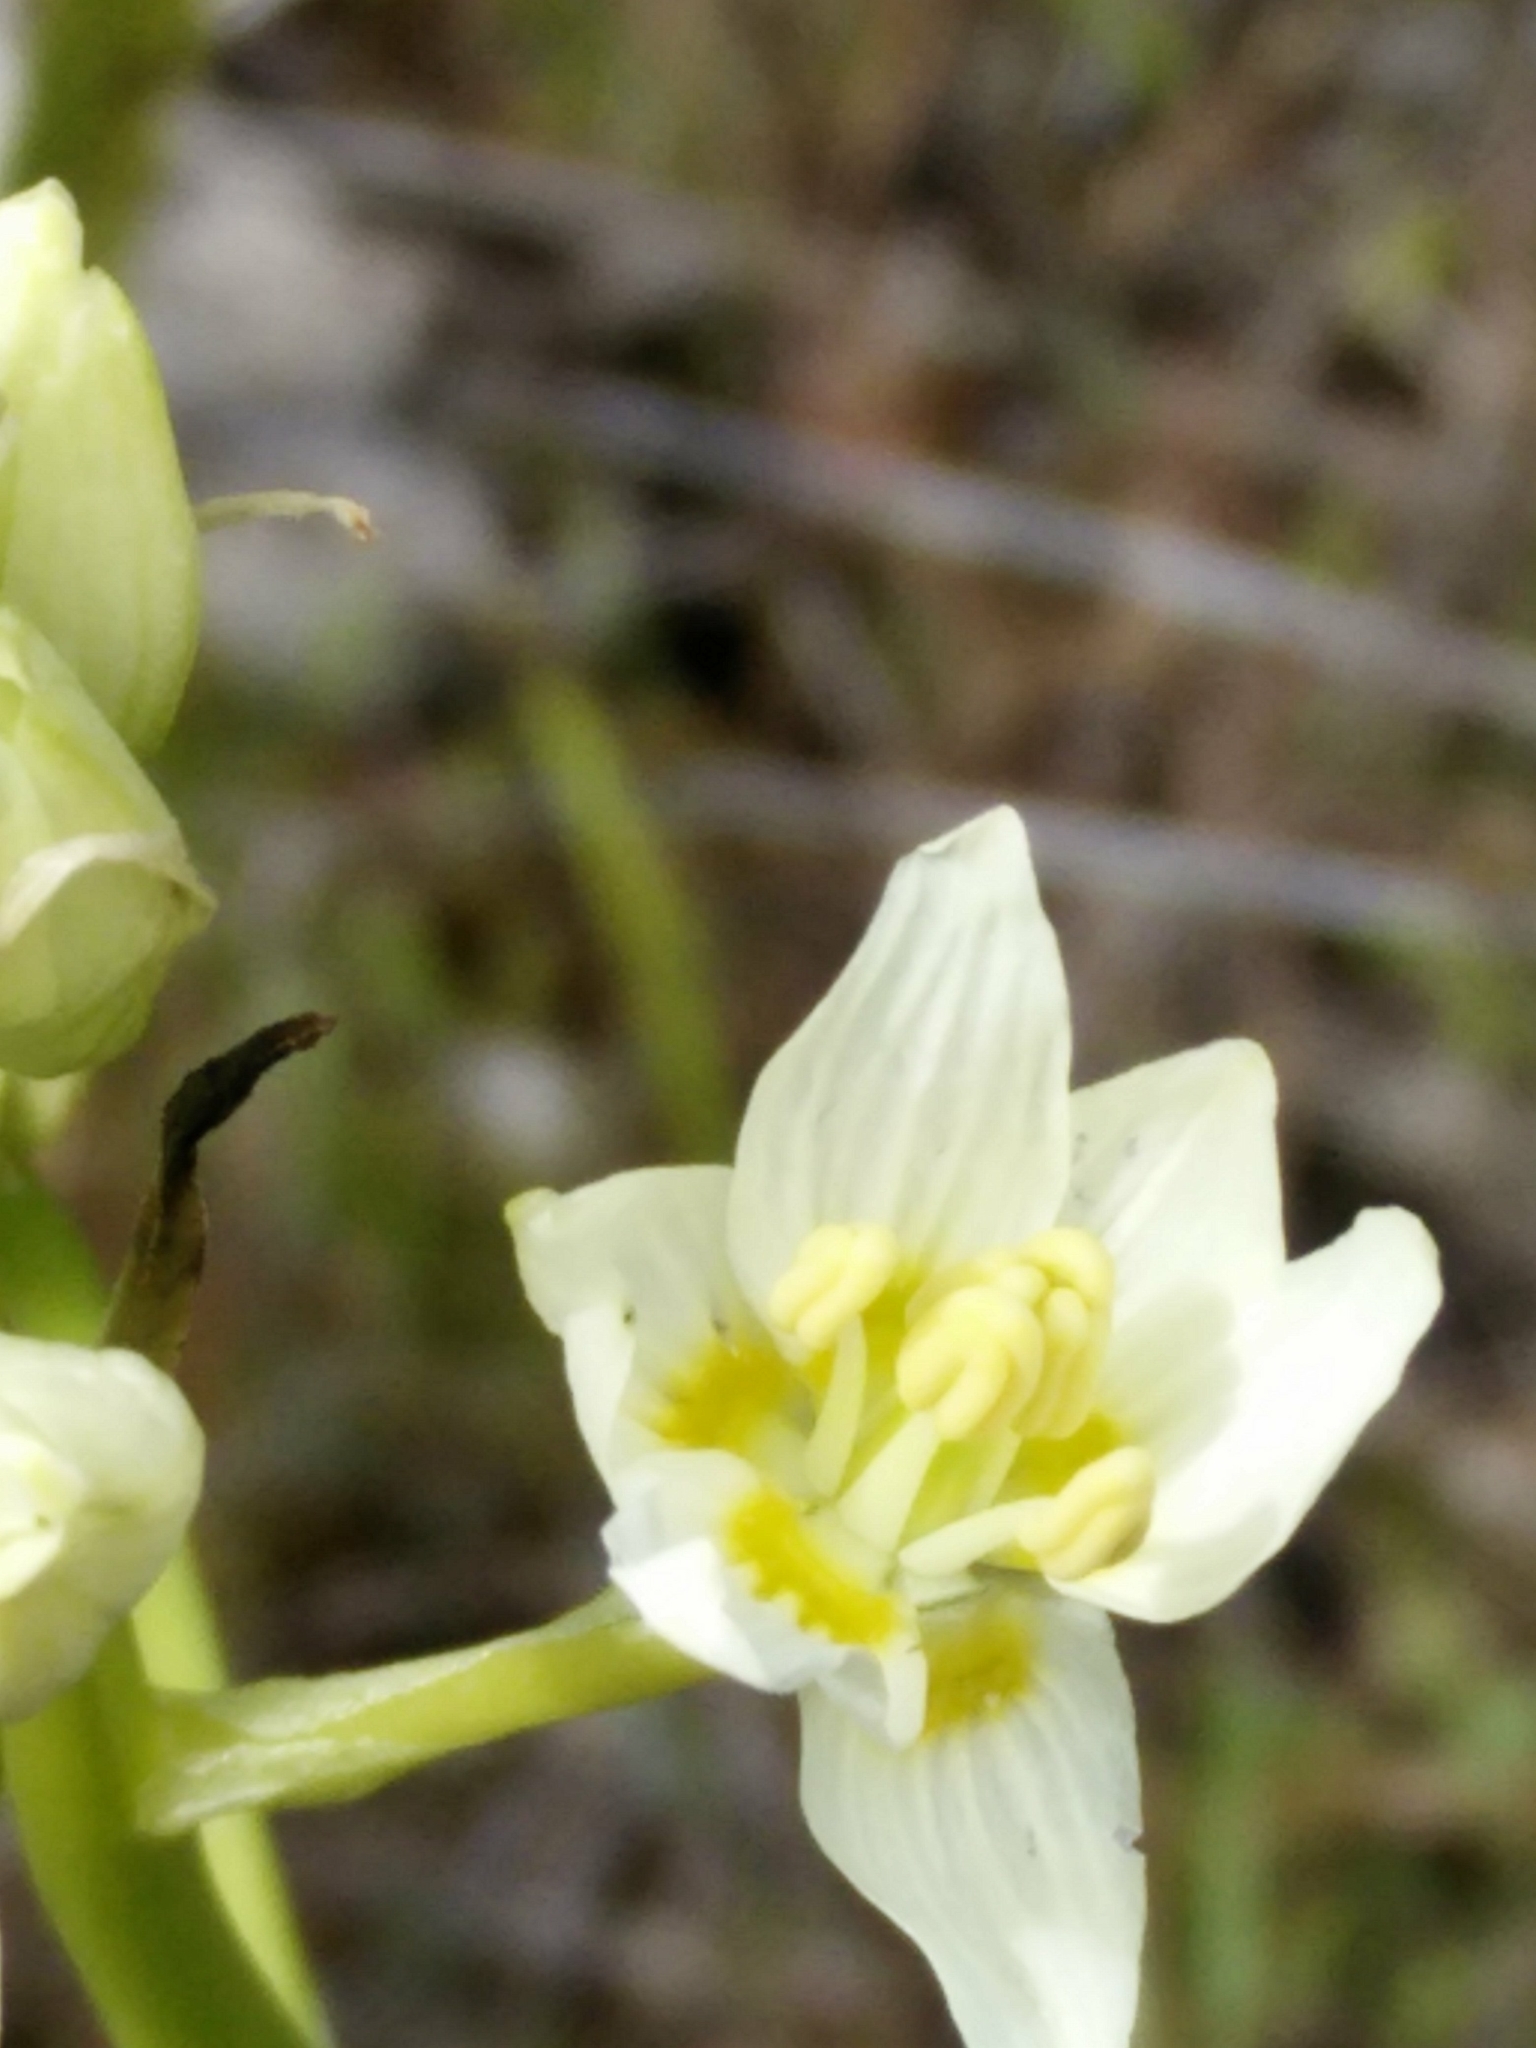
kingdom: Plantae
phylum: Tracheophyta
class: Liliopsida
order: Liliales
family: Melanthiaceae
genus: Toxicoscordion
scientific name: Toxicoscordion fremontii
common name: Fremont's death camas
